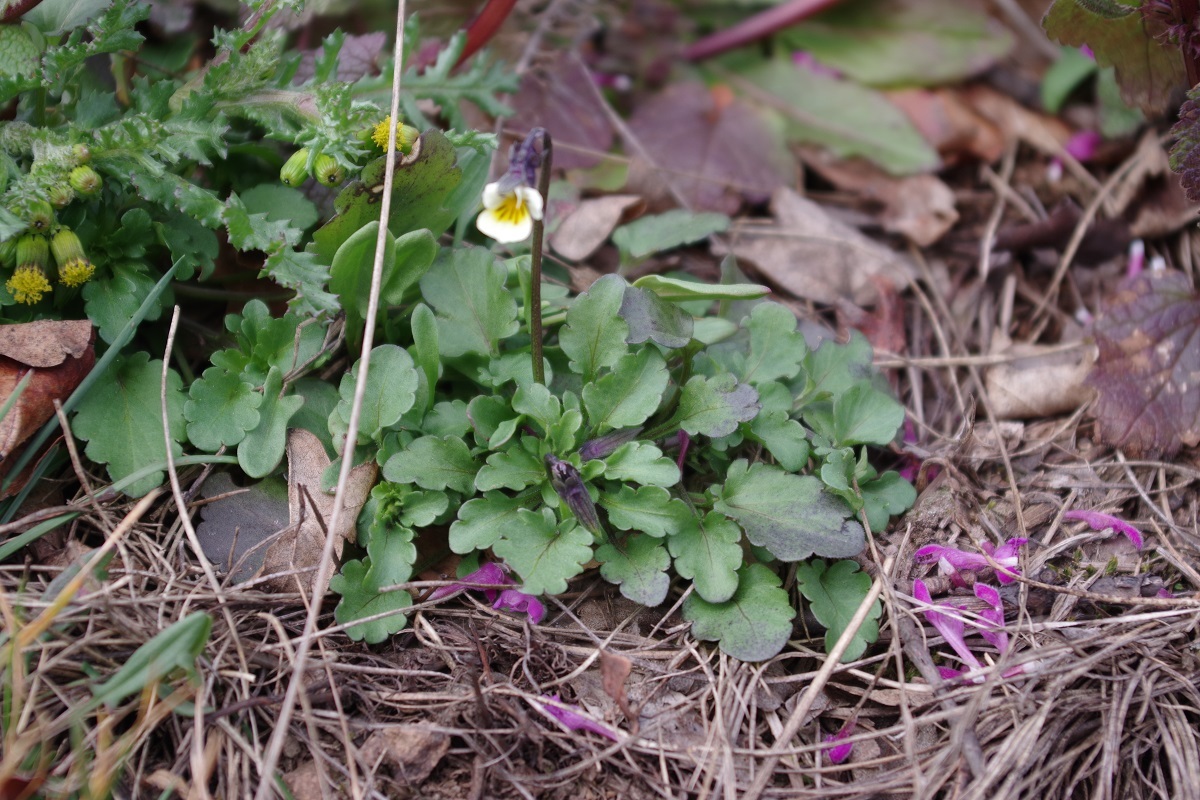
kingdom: Plantae
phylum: Tracheophyta
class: Magnoliopsida
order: Malpighiales
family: Violaceae
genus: Viola
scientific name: Viola arvensis
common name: Field pansy
